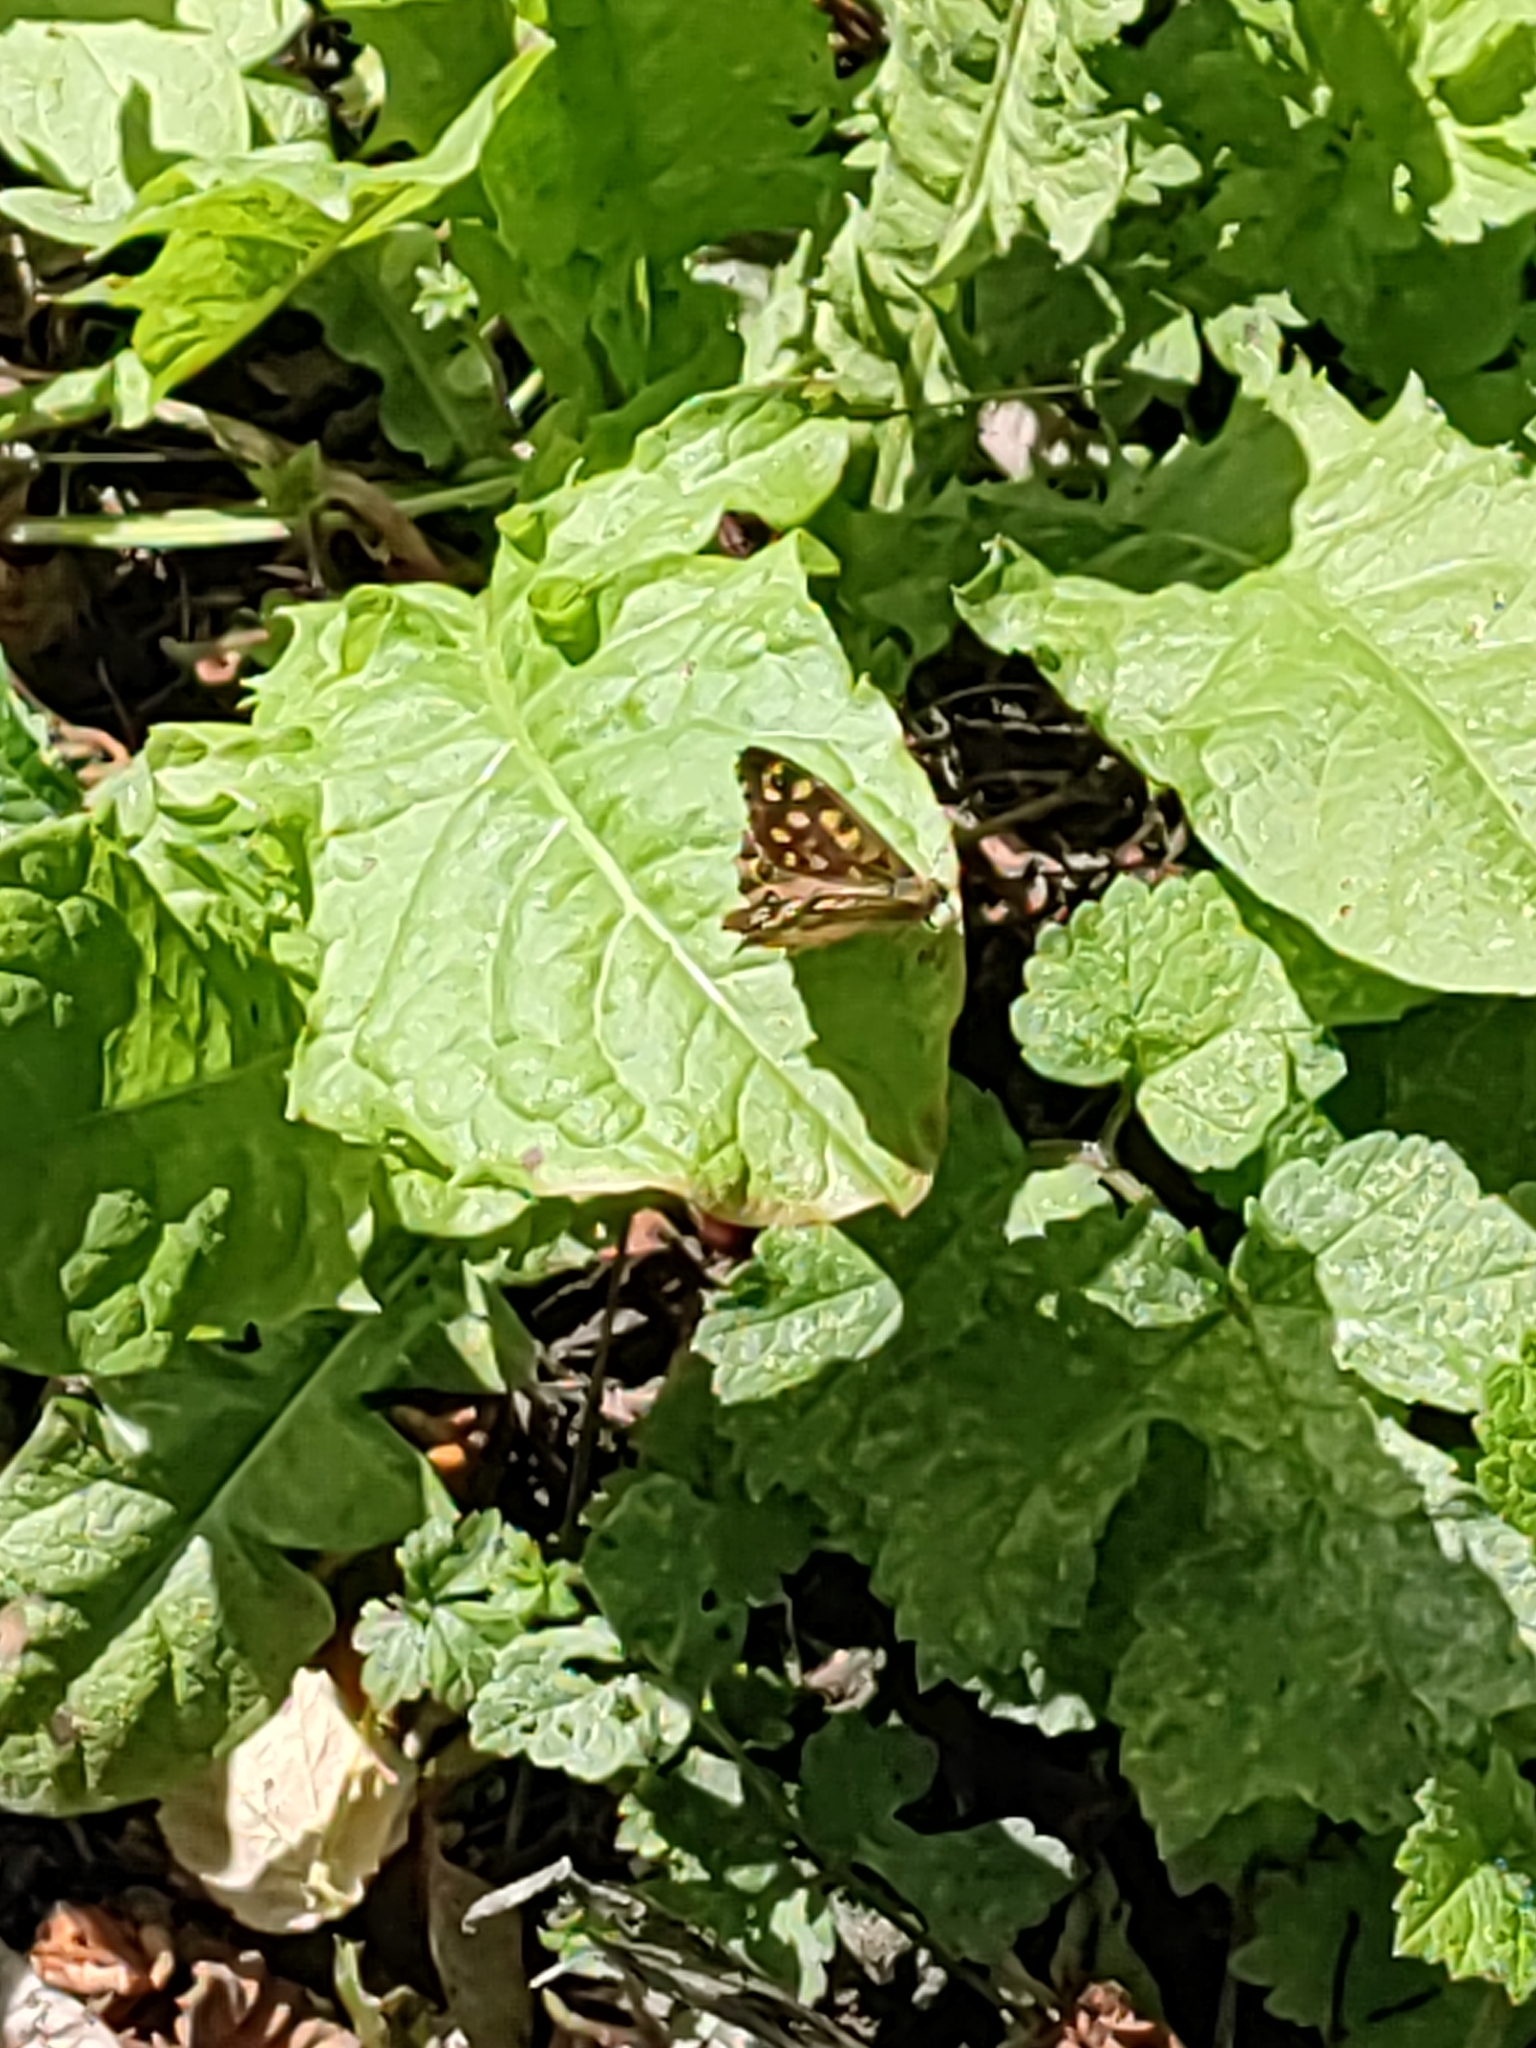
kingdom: Animalia
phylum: Arthropoda
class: Insecta
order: Lepidoptera
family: Nymphalidae
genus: Pararge
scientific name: Pararge aegeria
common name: Speckled wood
